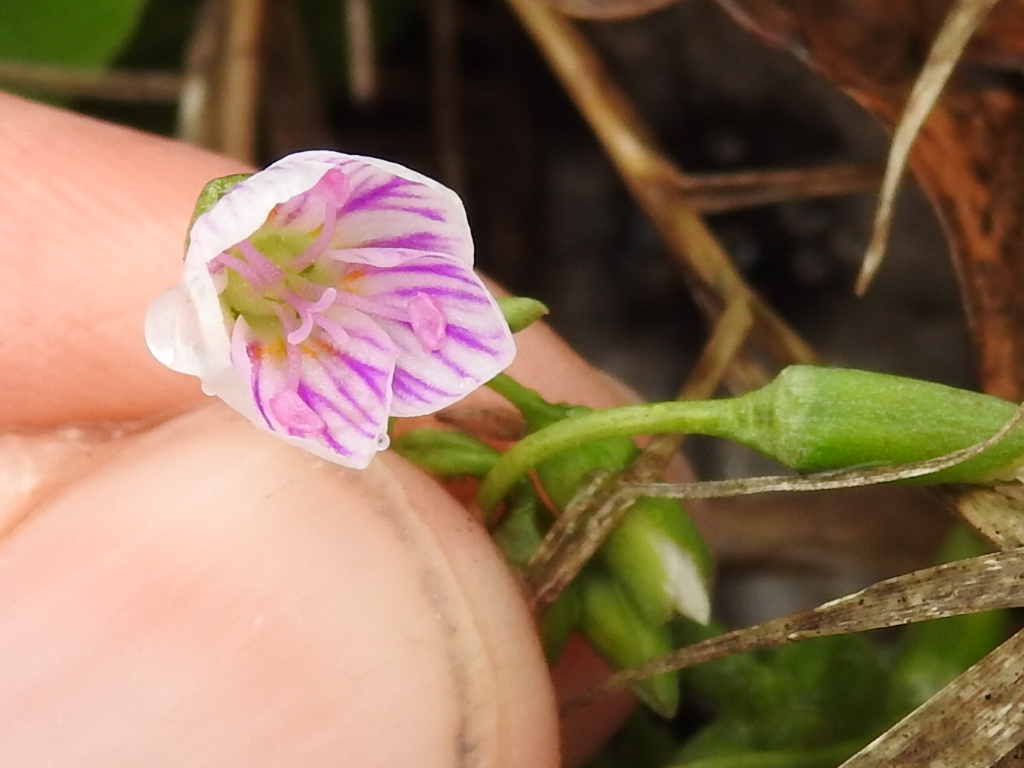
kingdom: Plantae
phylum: Tracheophyta
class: Magnoliopsida
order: Caryophyllales
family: Montiaceae
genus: Claytonia
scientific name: Claytonia virginica
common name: Virginia springbeauty
